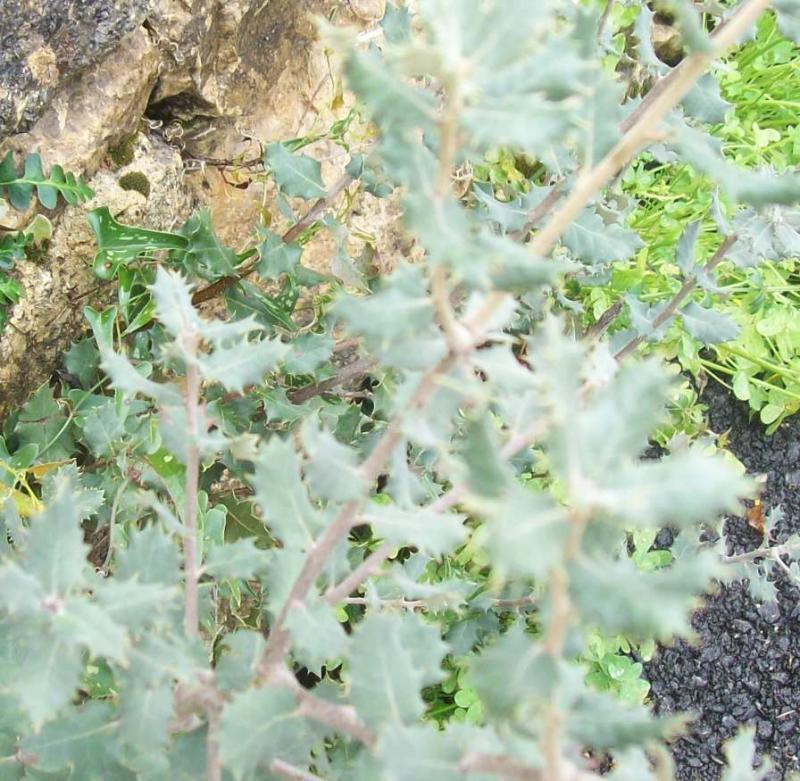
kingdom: Plantae
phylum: Tracheophyta
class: Magnoliopsida
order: Fagales
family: Fagaceae
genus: Quercus
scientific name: Quercus rotundifolia
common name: Holm oak
